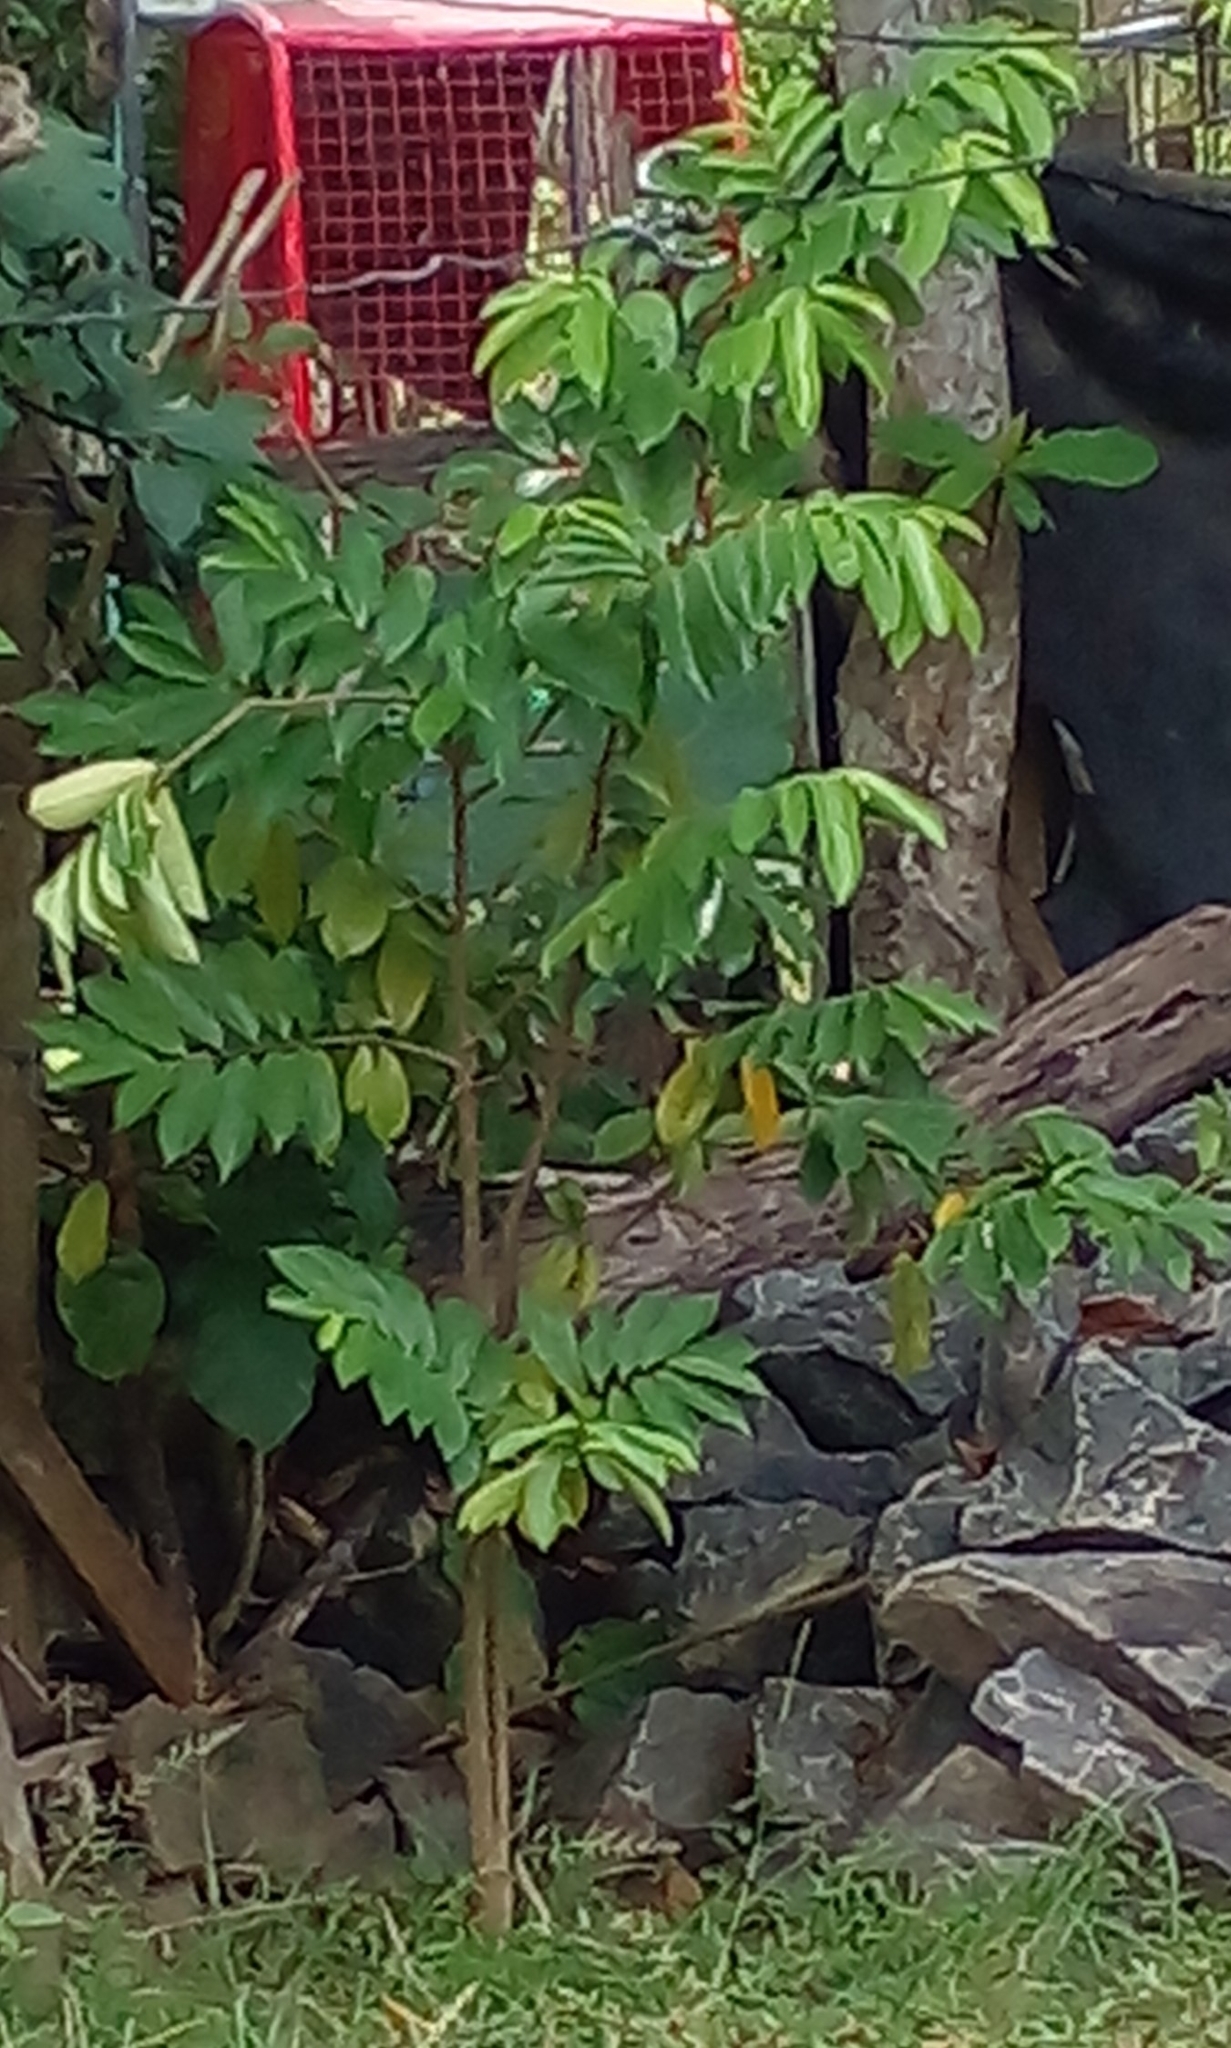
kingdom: Plantae
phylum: Tracheophyta
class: Magnoliopsida
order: Magnoliales
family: Annonaceae
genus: Annona
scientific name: Annona squamosa
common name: Custard-apple
